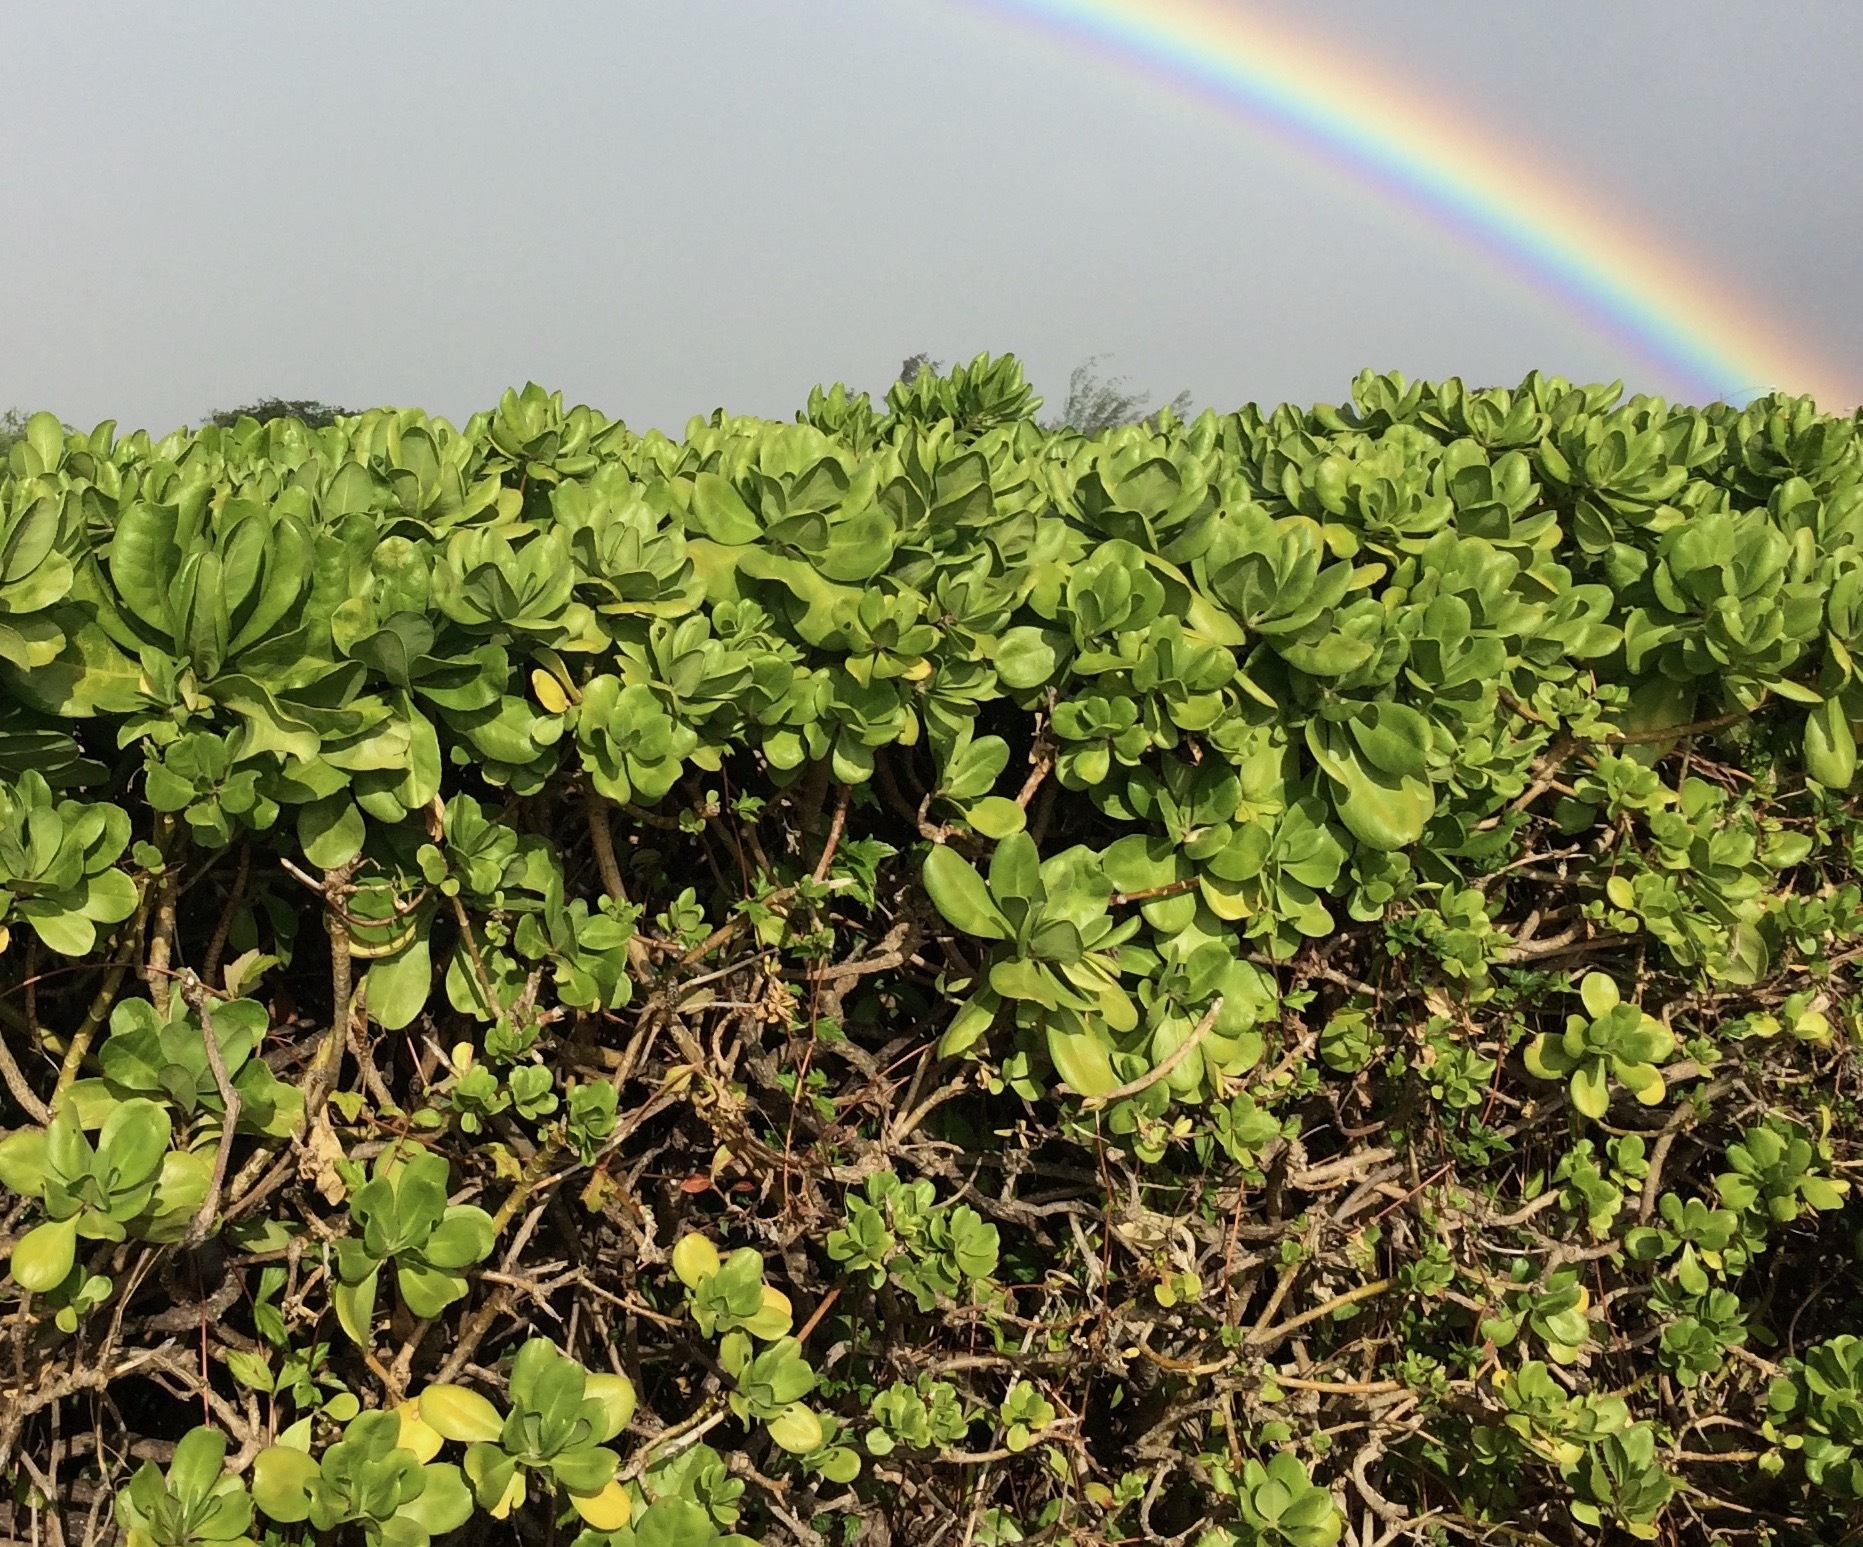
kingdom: Plantae
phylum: Tracheophyta
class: Magnoliopsida
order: Asterales
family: Goodeniaceae
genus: Scaevola
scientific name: Scaevola taccada
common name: Sea lettucetree
